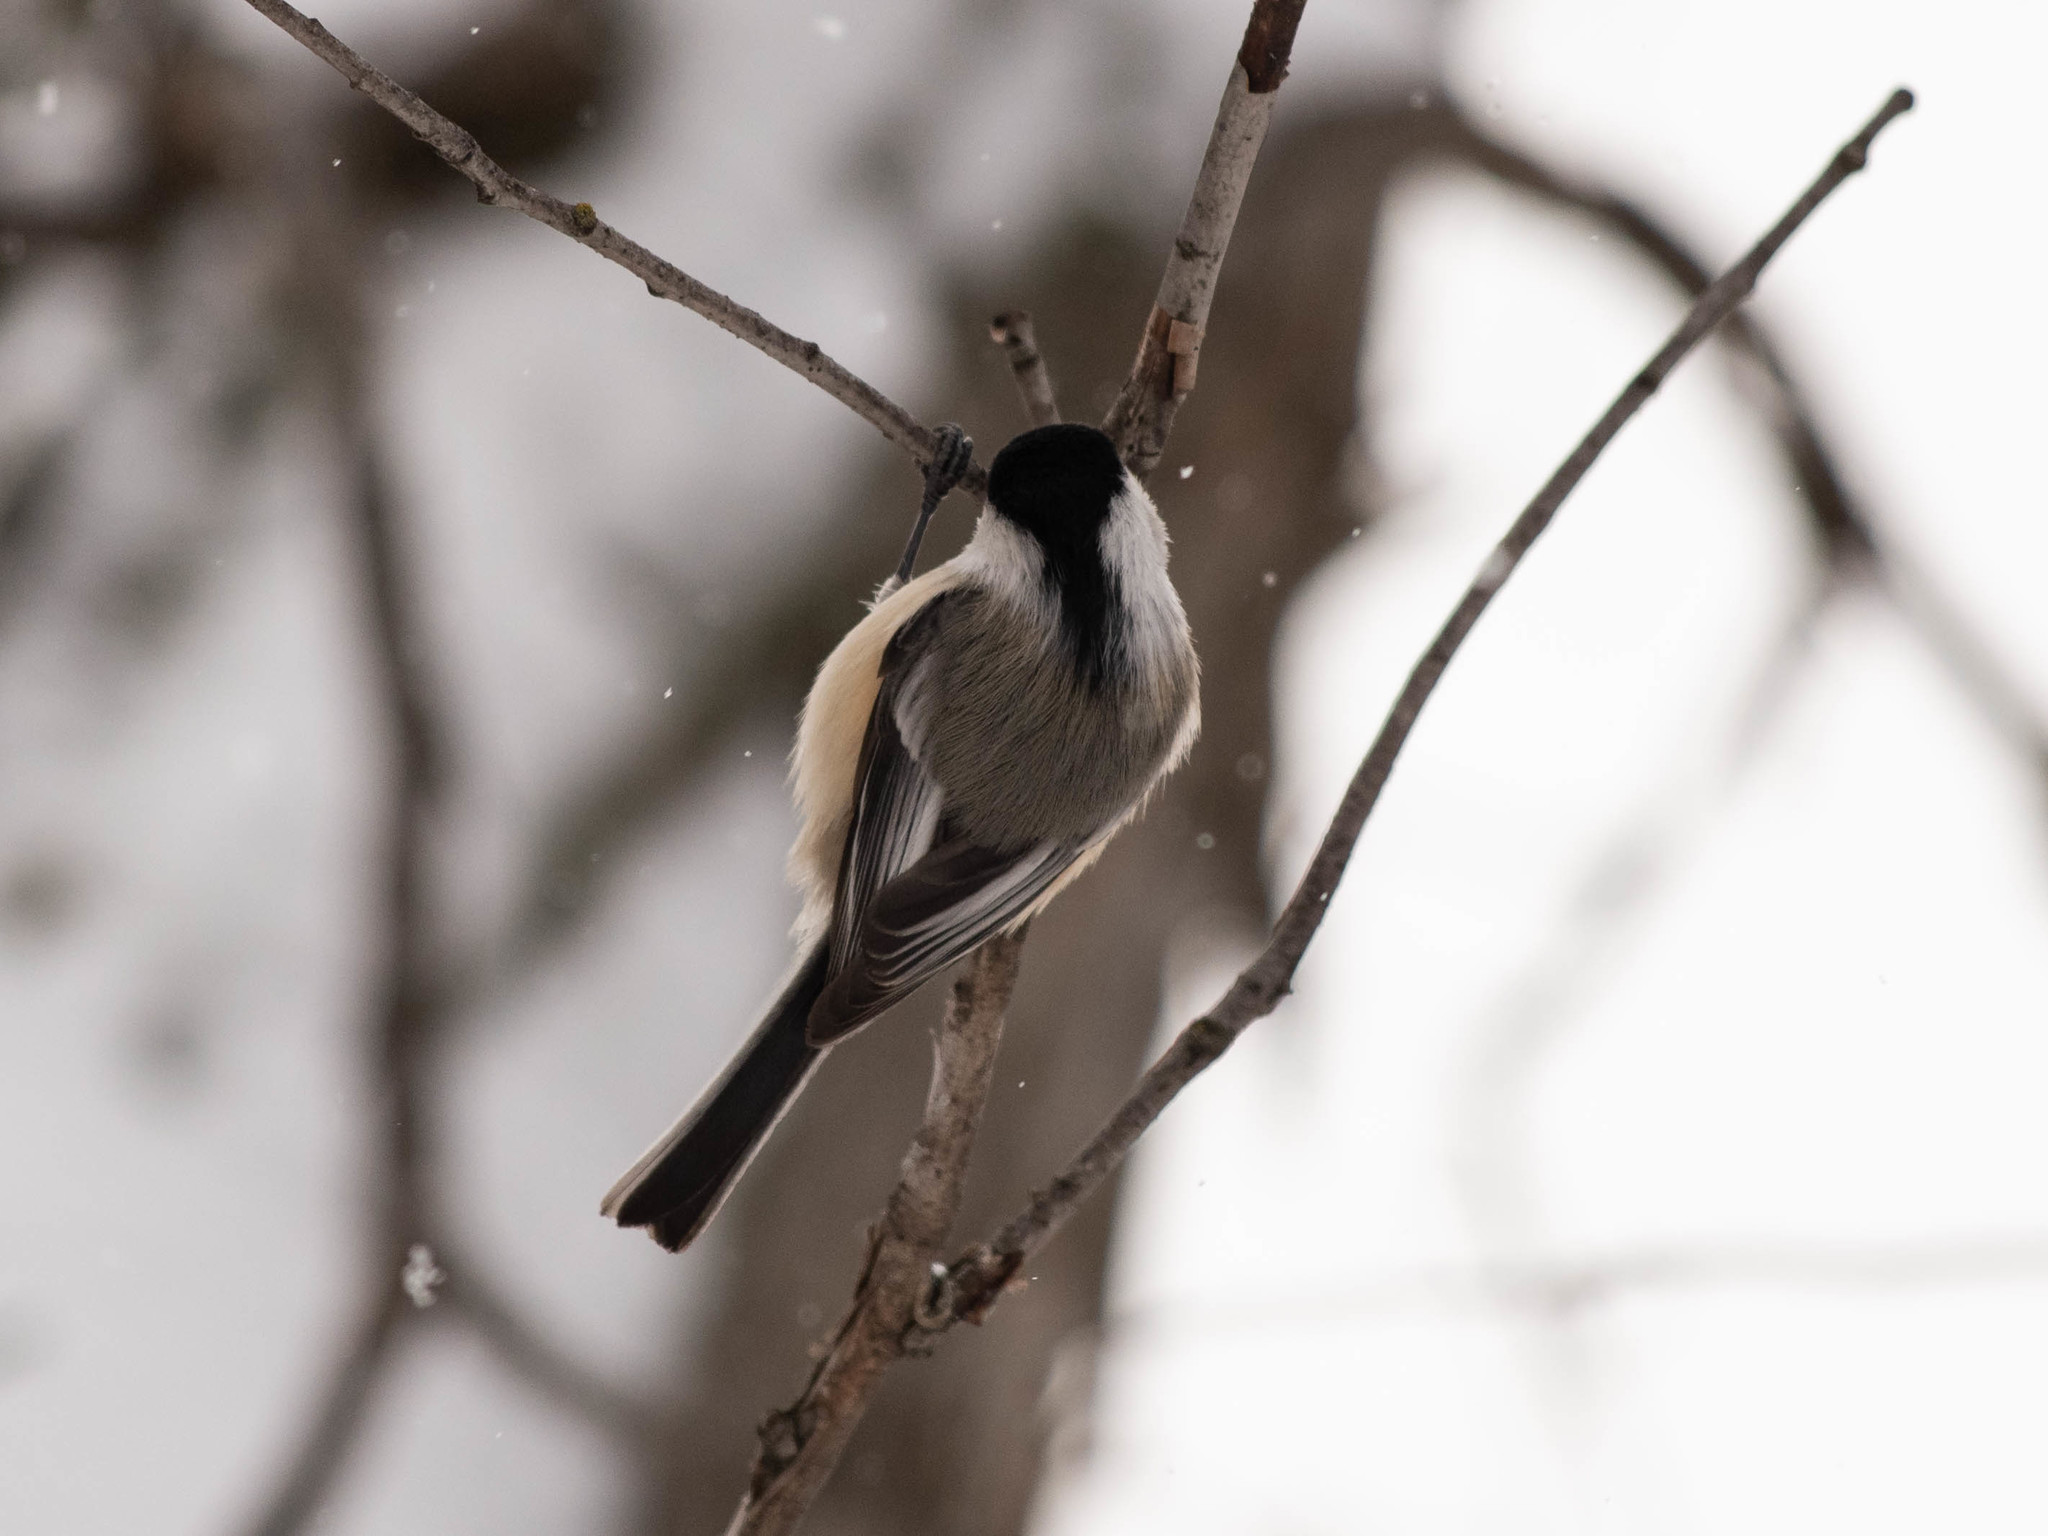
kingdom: Animalia
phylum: Chordata
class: Aves
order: Passeriformes
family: Paridae
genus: Poecile
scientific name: Poecile atricapillus
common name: Black-capped chickadee
